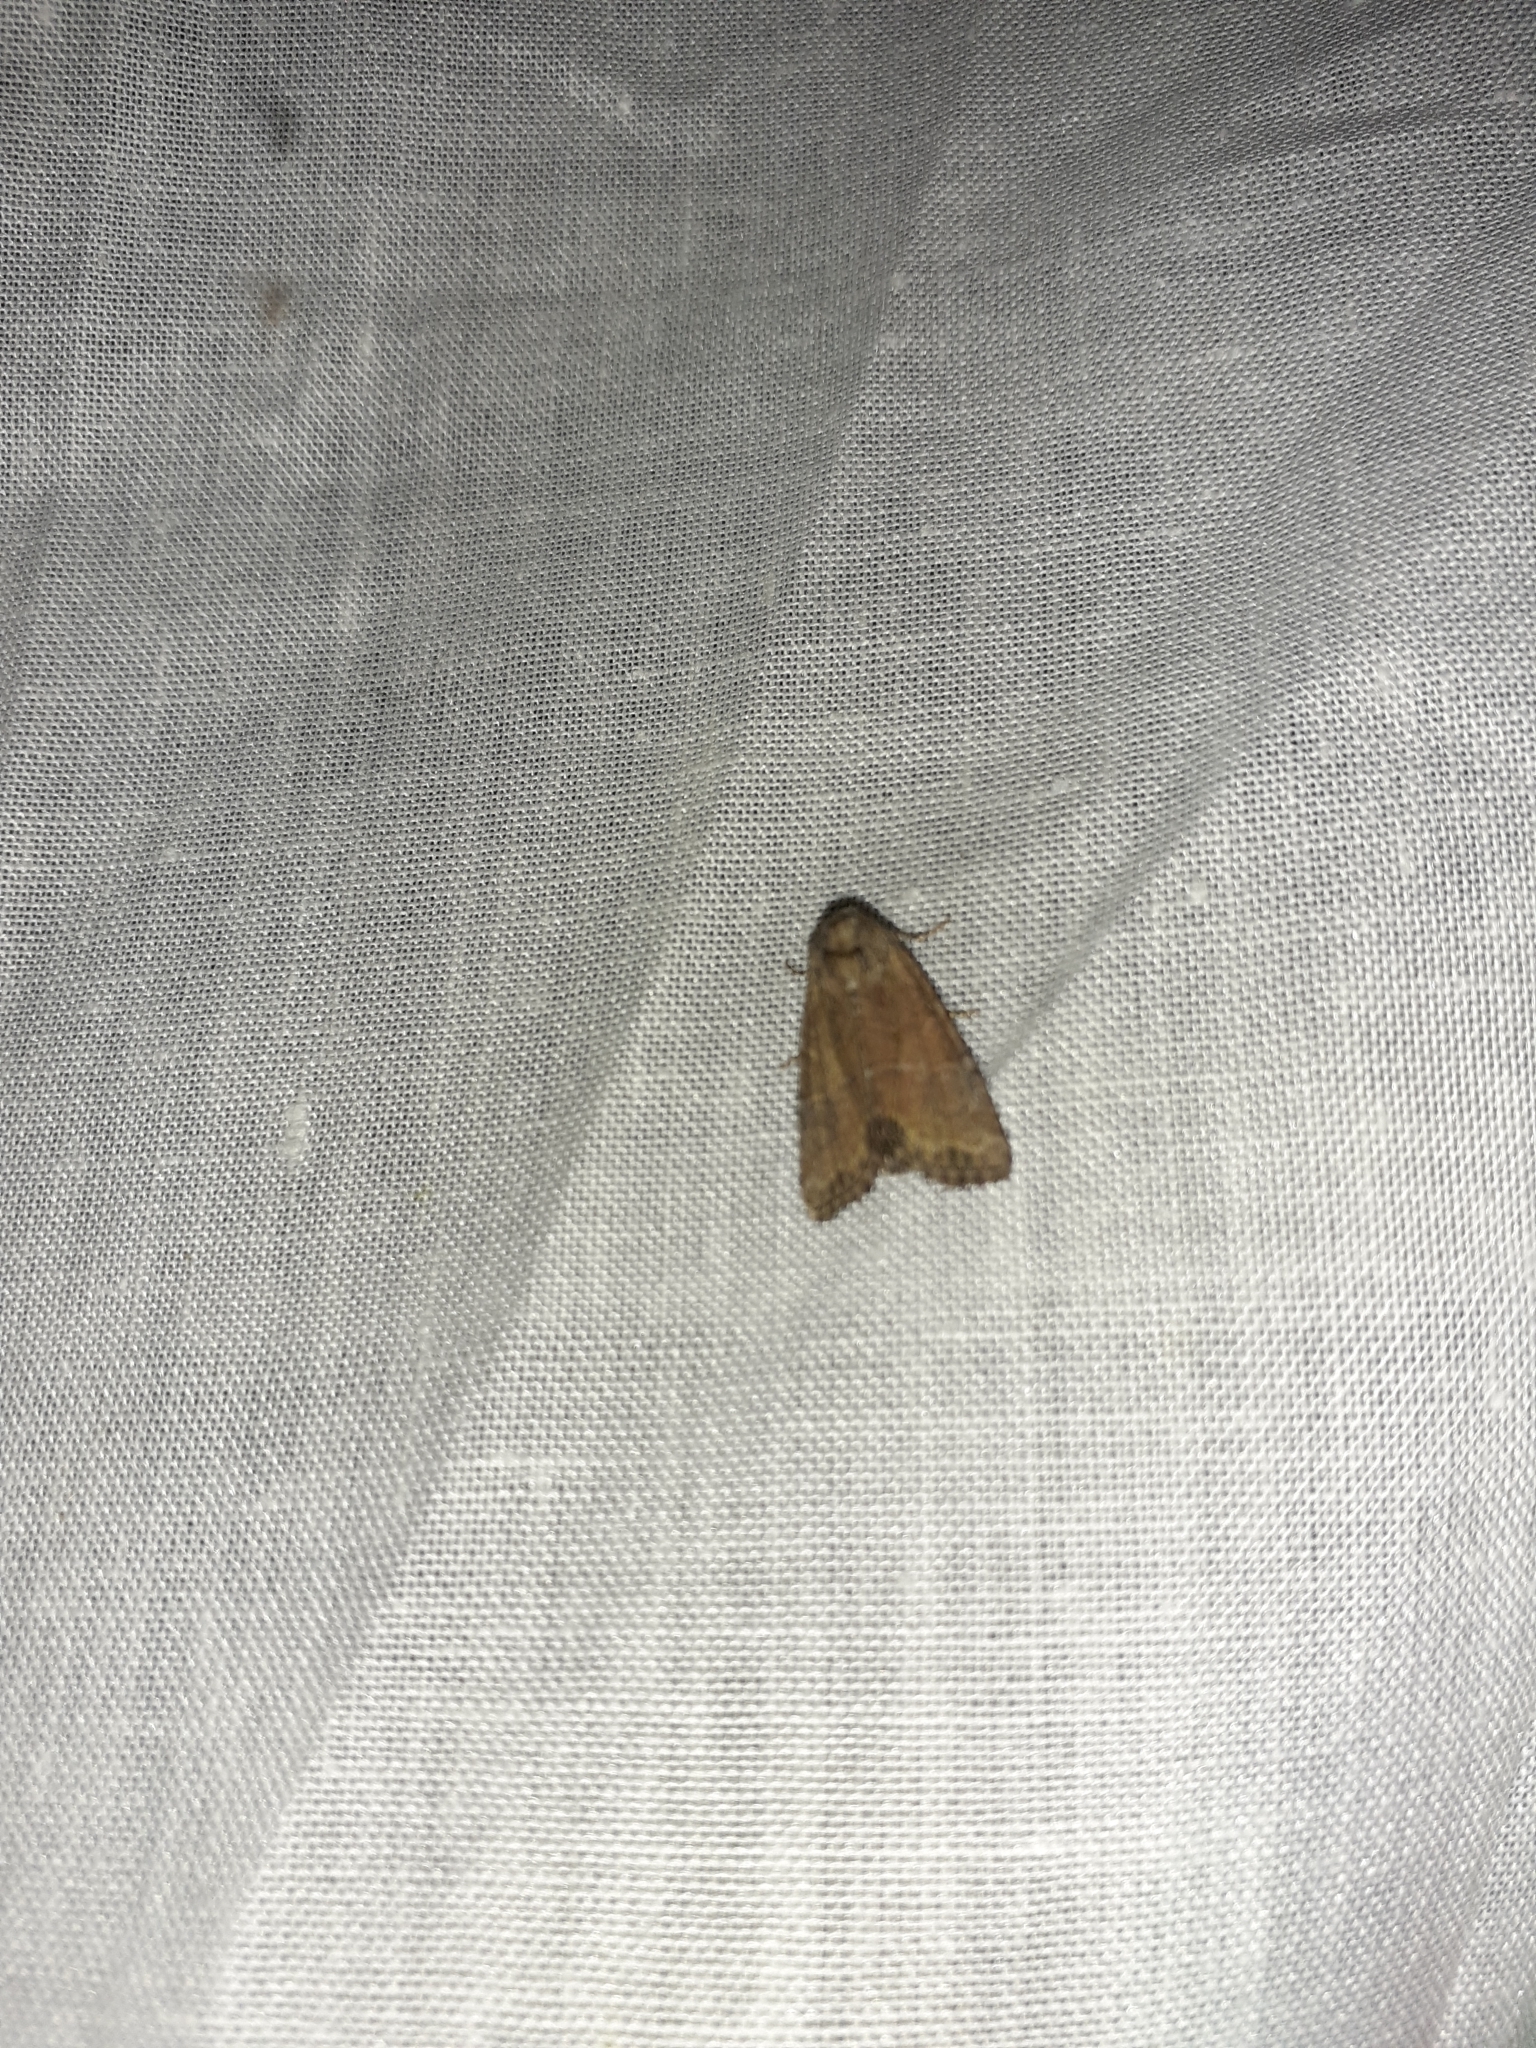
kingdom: Animalia
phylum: Arthropoda
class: Insecta
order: Lepidoptera
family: Noctuidae
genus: Mesoligia
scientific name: Mesoligia furuncula
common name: Cloaked minor
